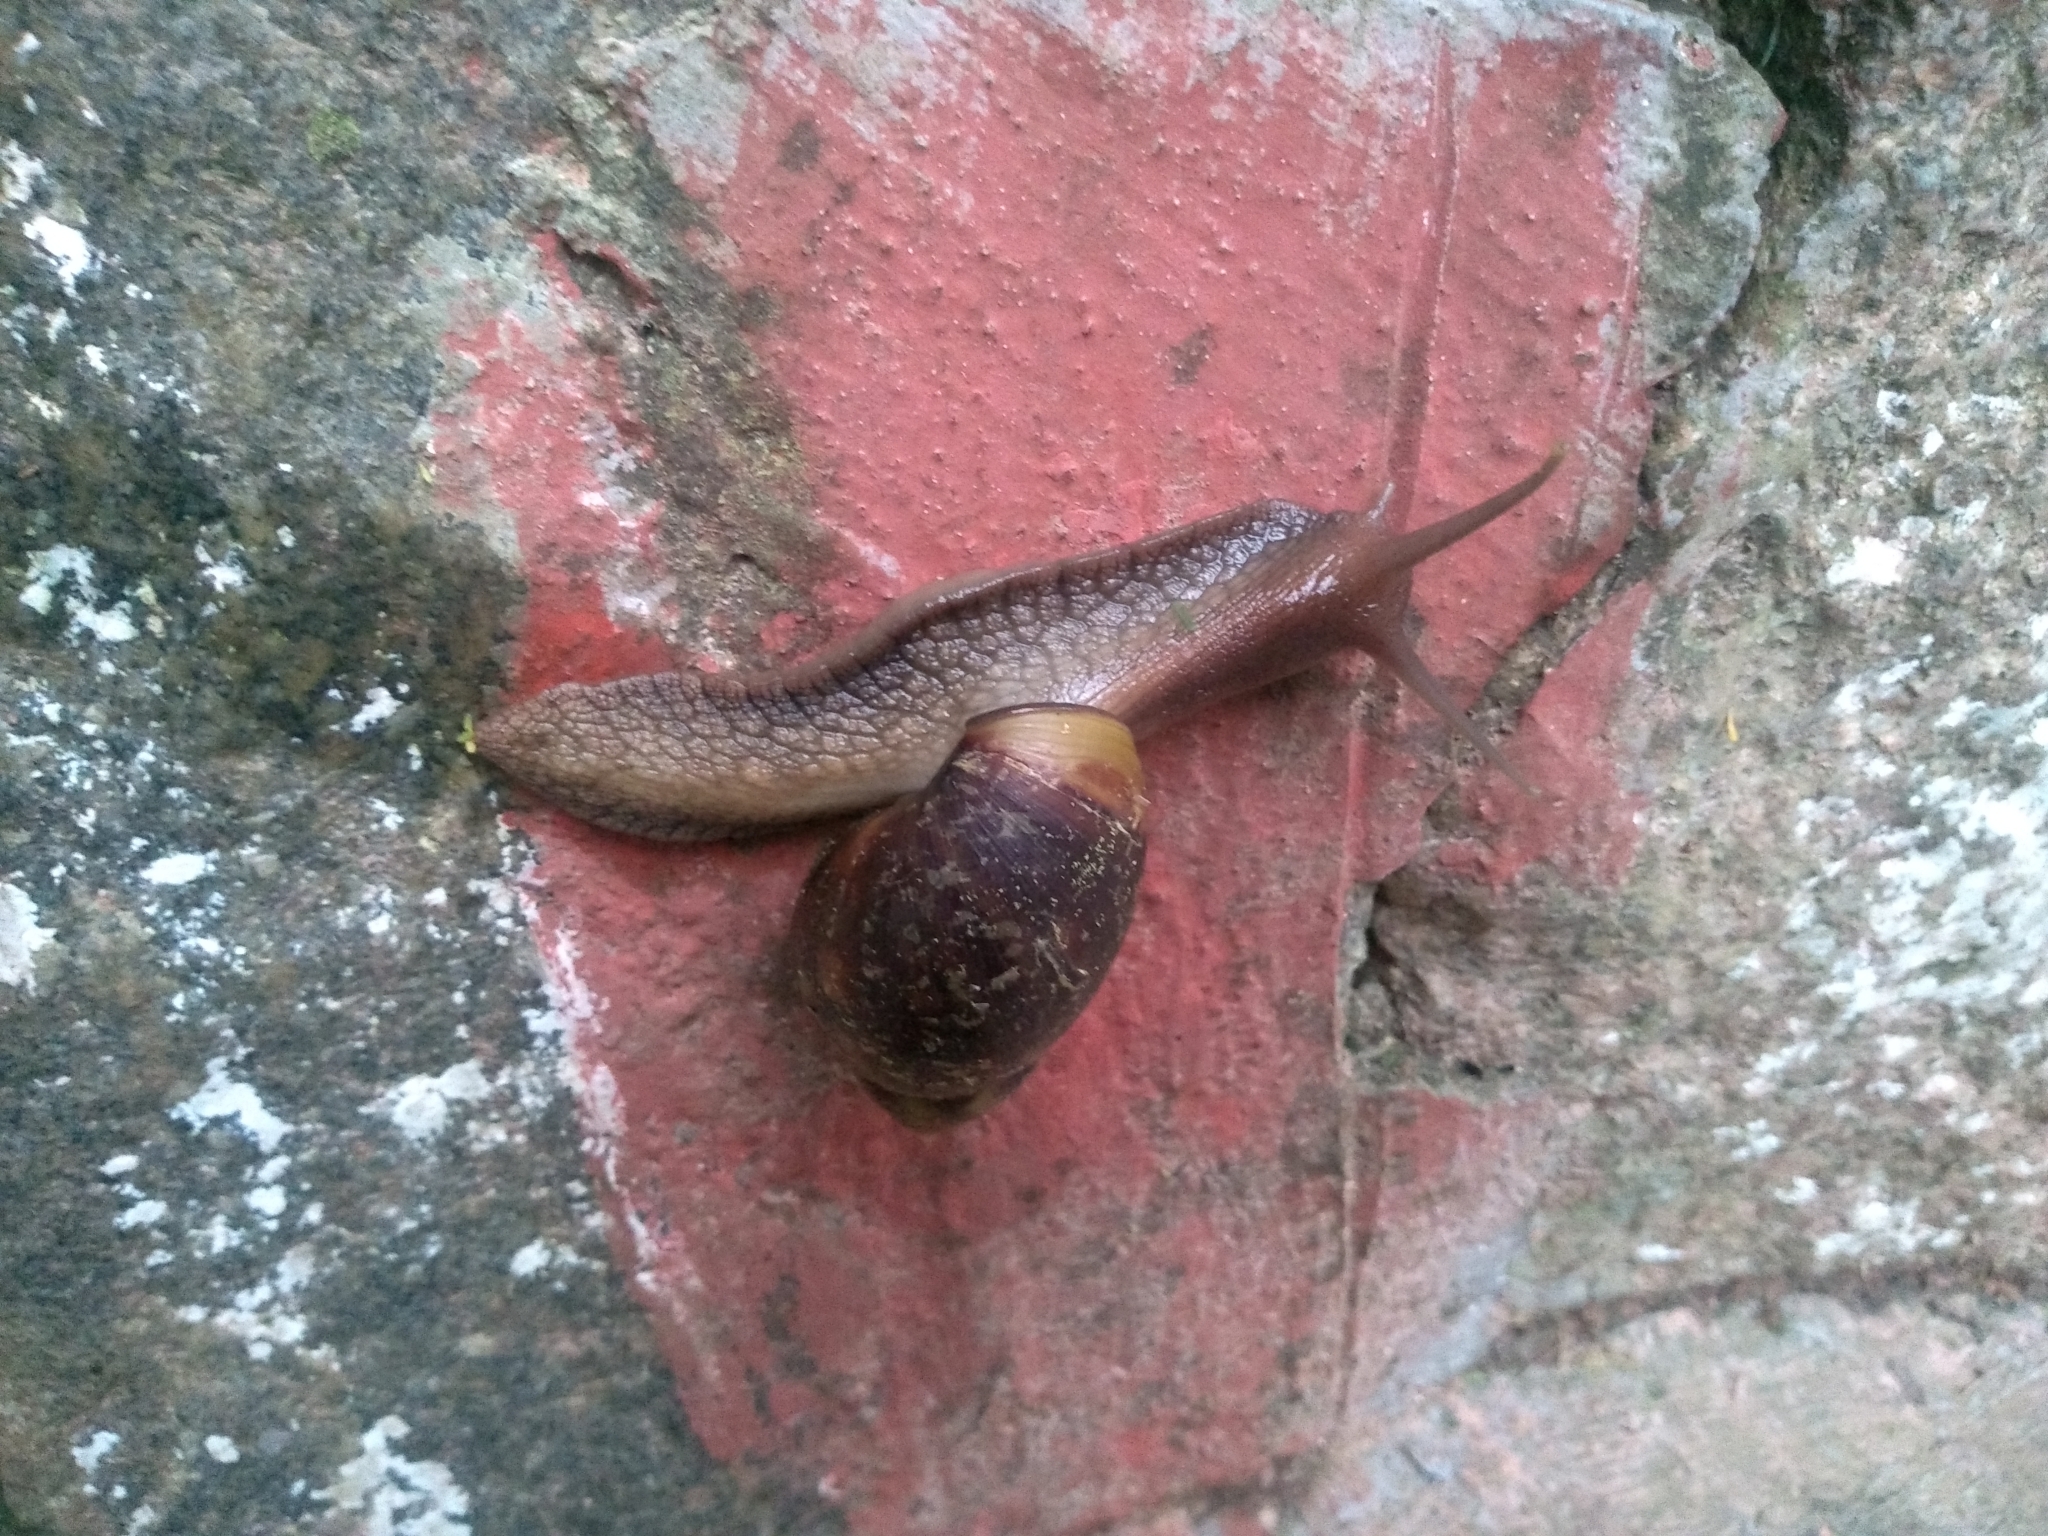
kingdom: Animalia
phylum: Mollusca
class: Gastropoda
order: Stylommatophora
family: Achatinidae
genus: Lissachatina
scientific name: Lissachatina fulica
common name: Giant african snail
